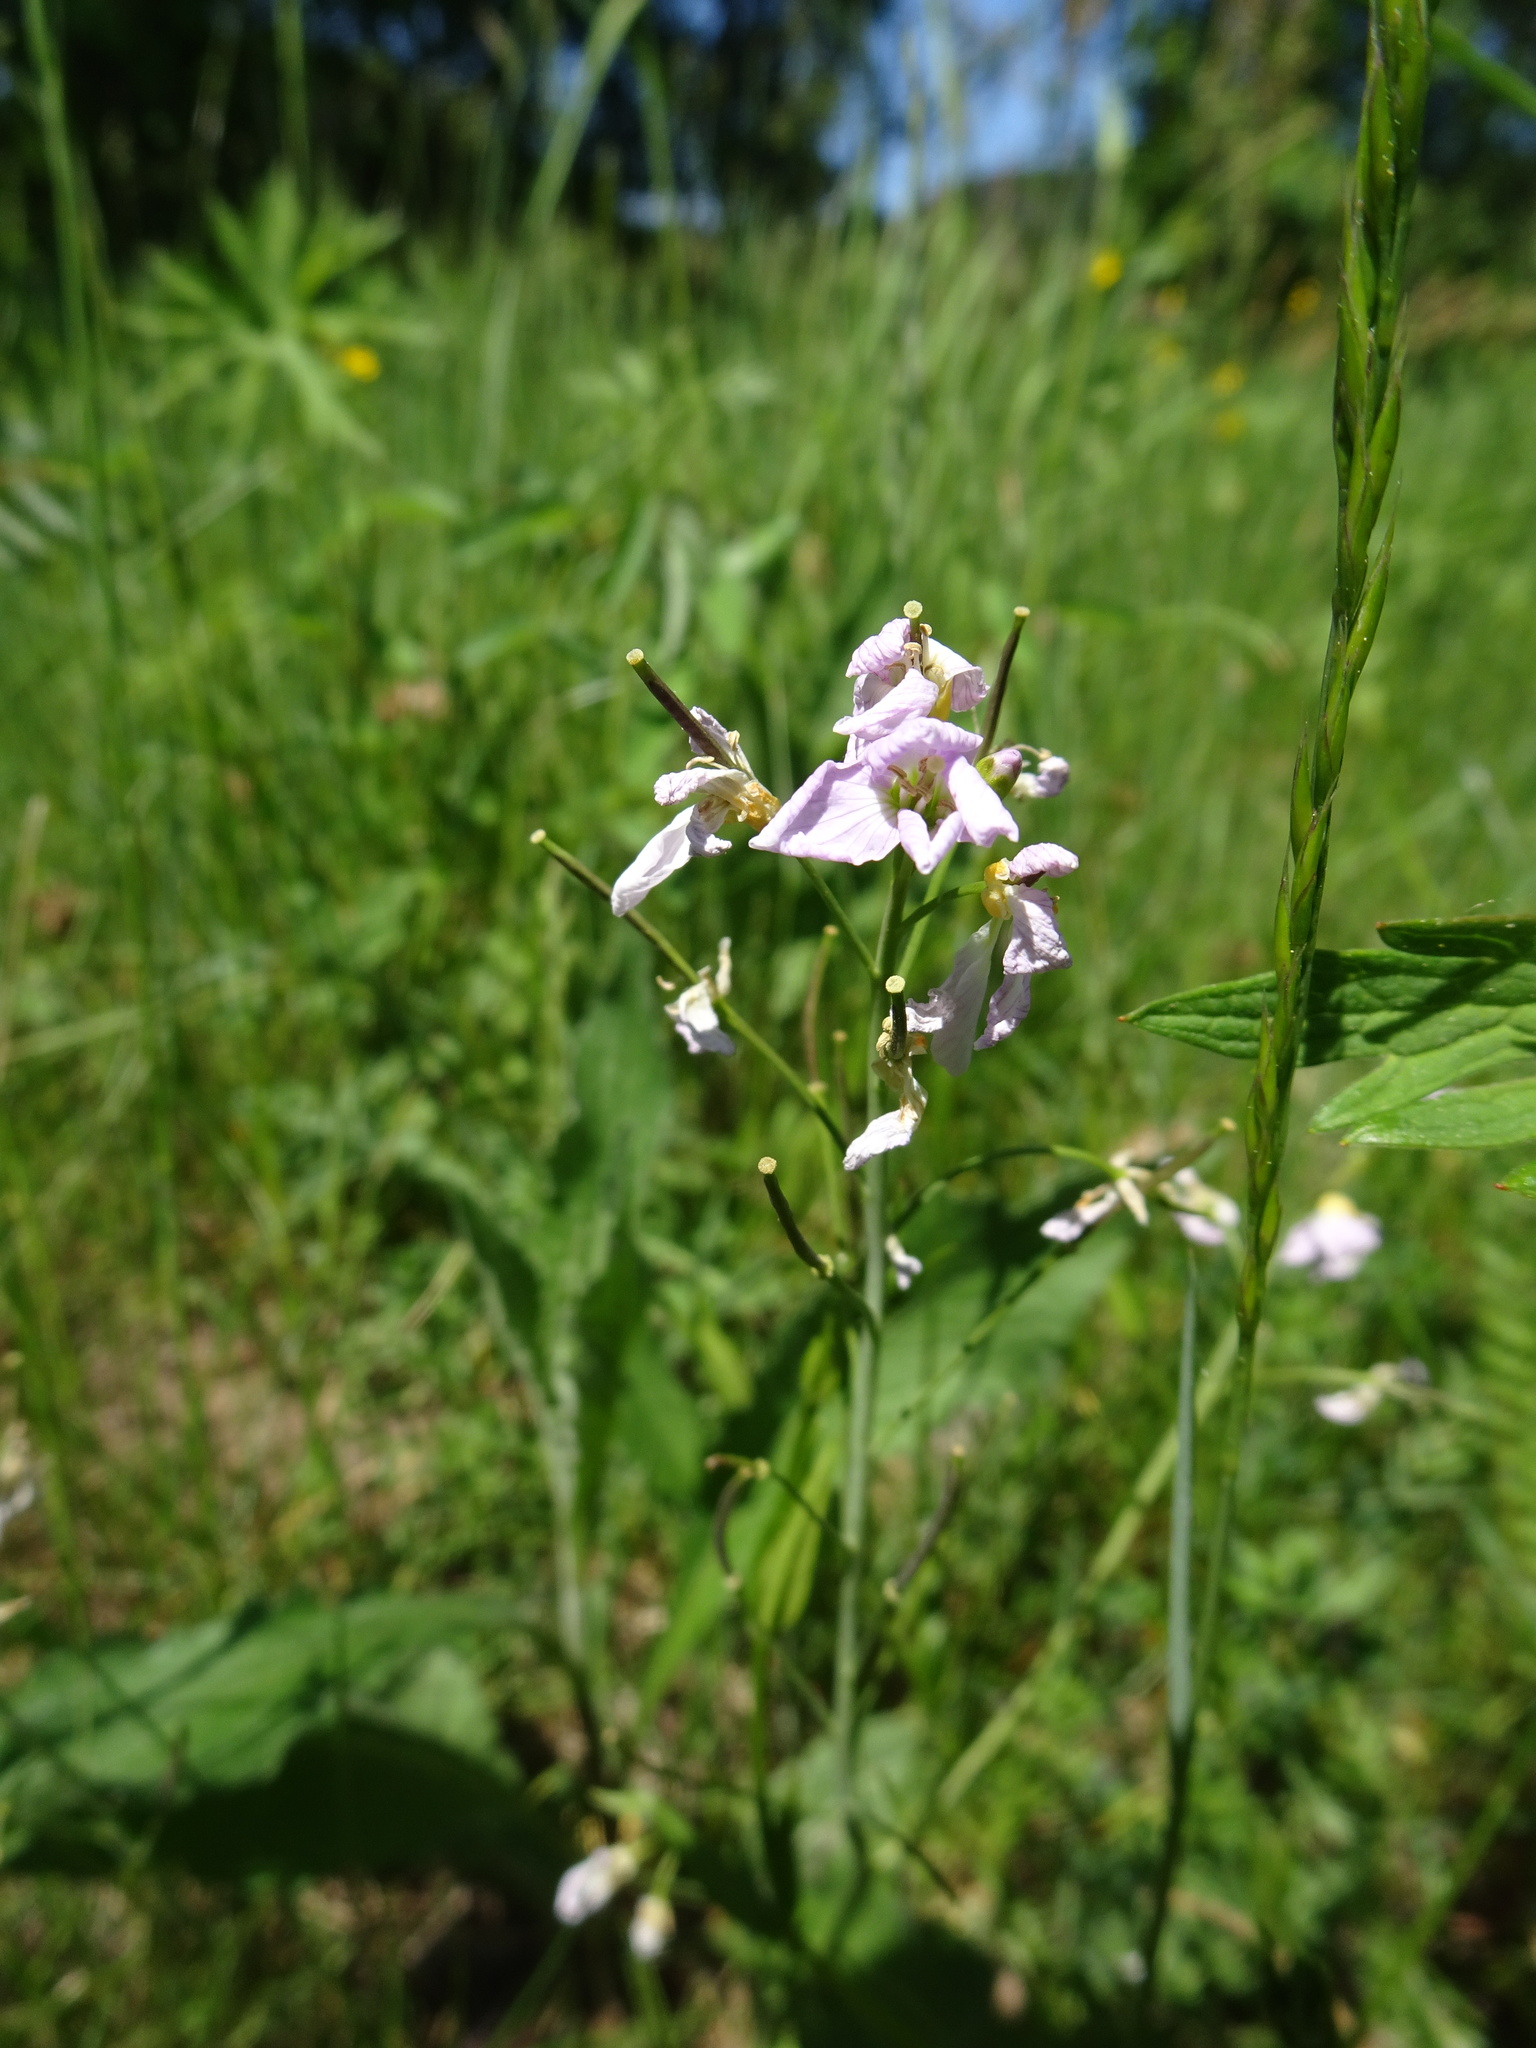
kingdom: Plantae
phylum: Tracheophyta
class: Magnoliopsida
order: Brassicales
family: Brassicaceae
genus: Cardamine
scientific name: Cardamine pratensis
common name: Cuckoo flower
